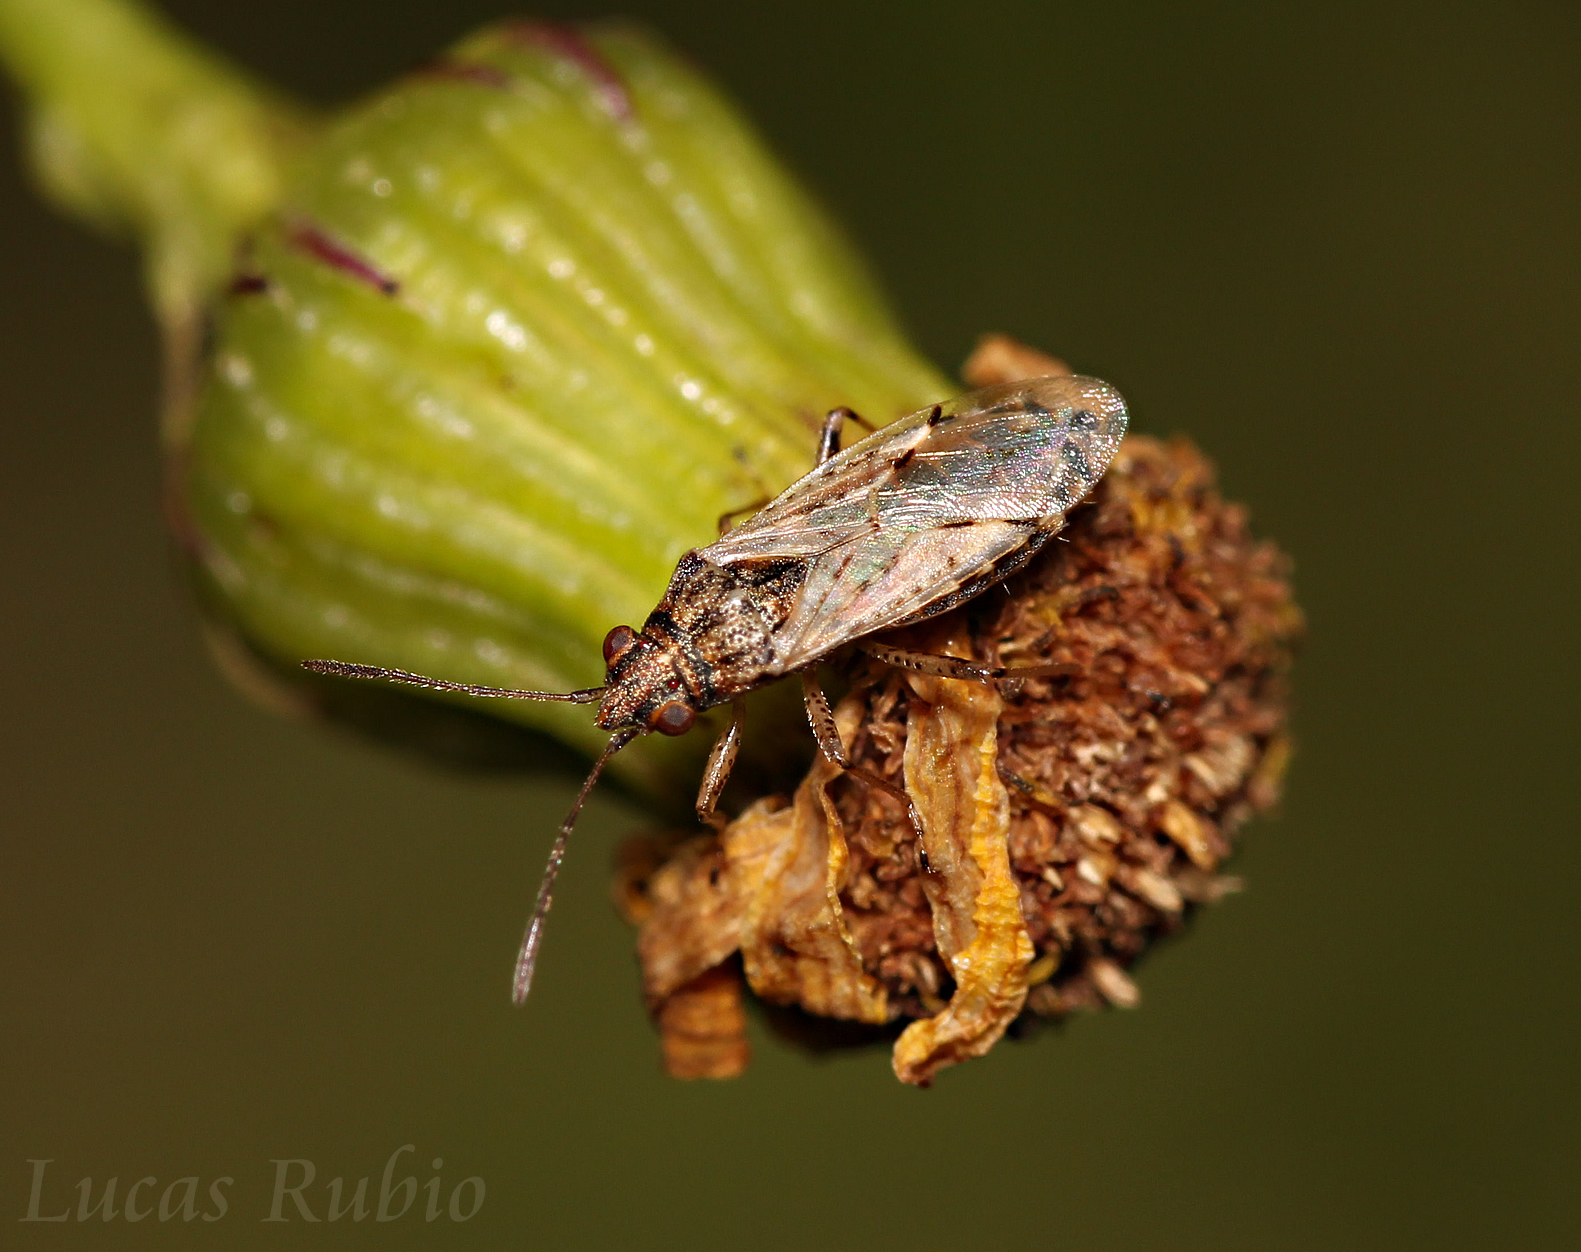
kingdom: Animalia
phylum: Arthropoda
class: Insecta
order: Hemiptera
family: Lygaeidae
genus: Nysius
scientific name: Nysius simulans
